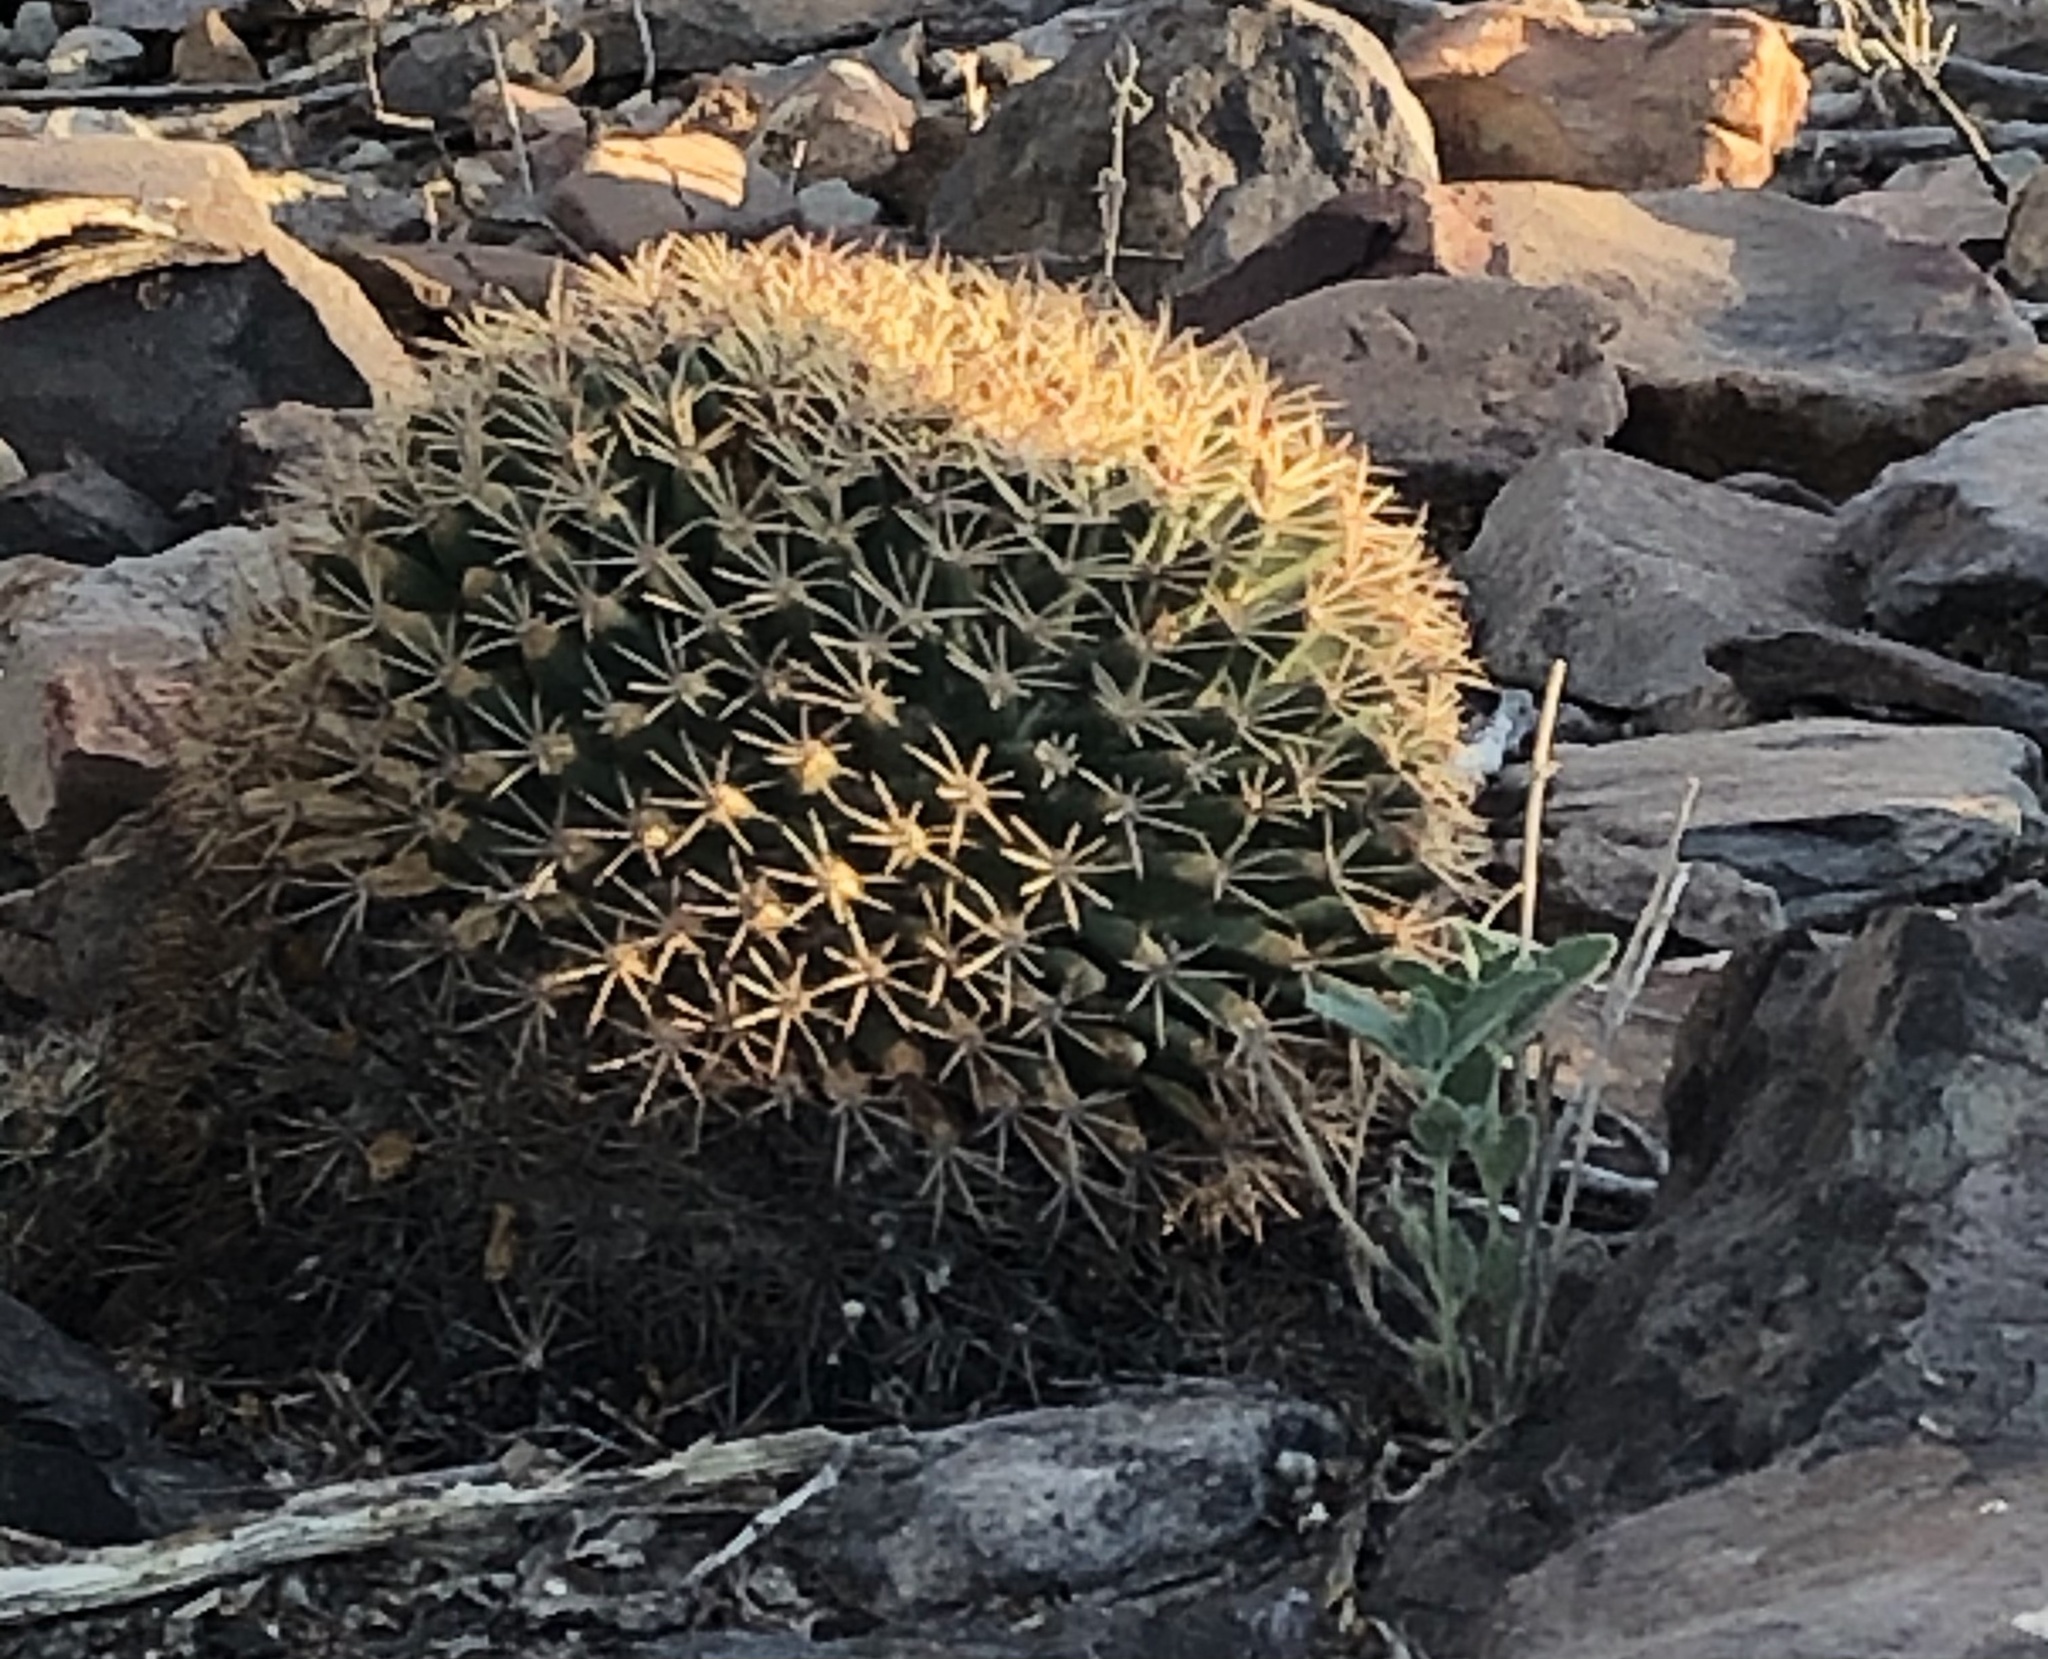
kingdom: Plantae
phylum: Tracheophyta
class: Magnoliopsida
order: Caryophyllales
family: Cactaceae
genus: Mammillaria
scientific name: Mammillaria heyderi
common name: Little nipple cactus
